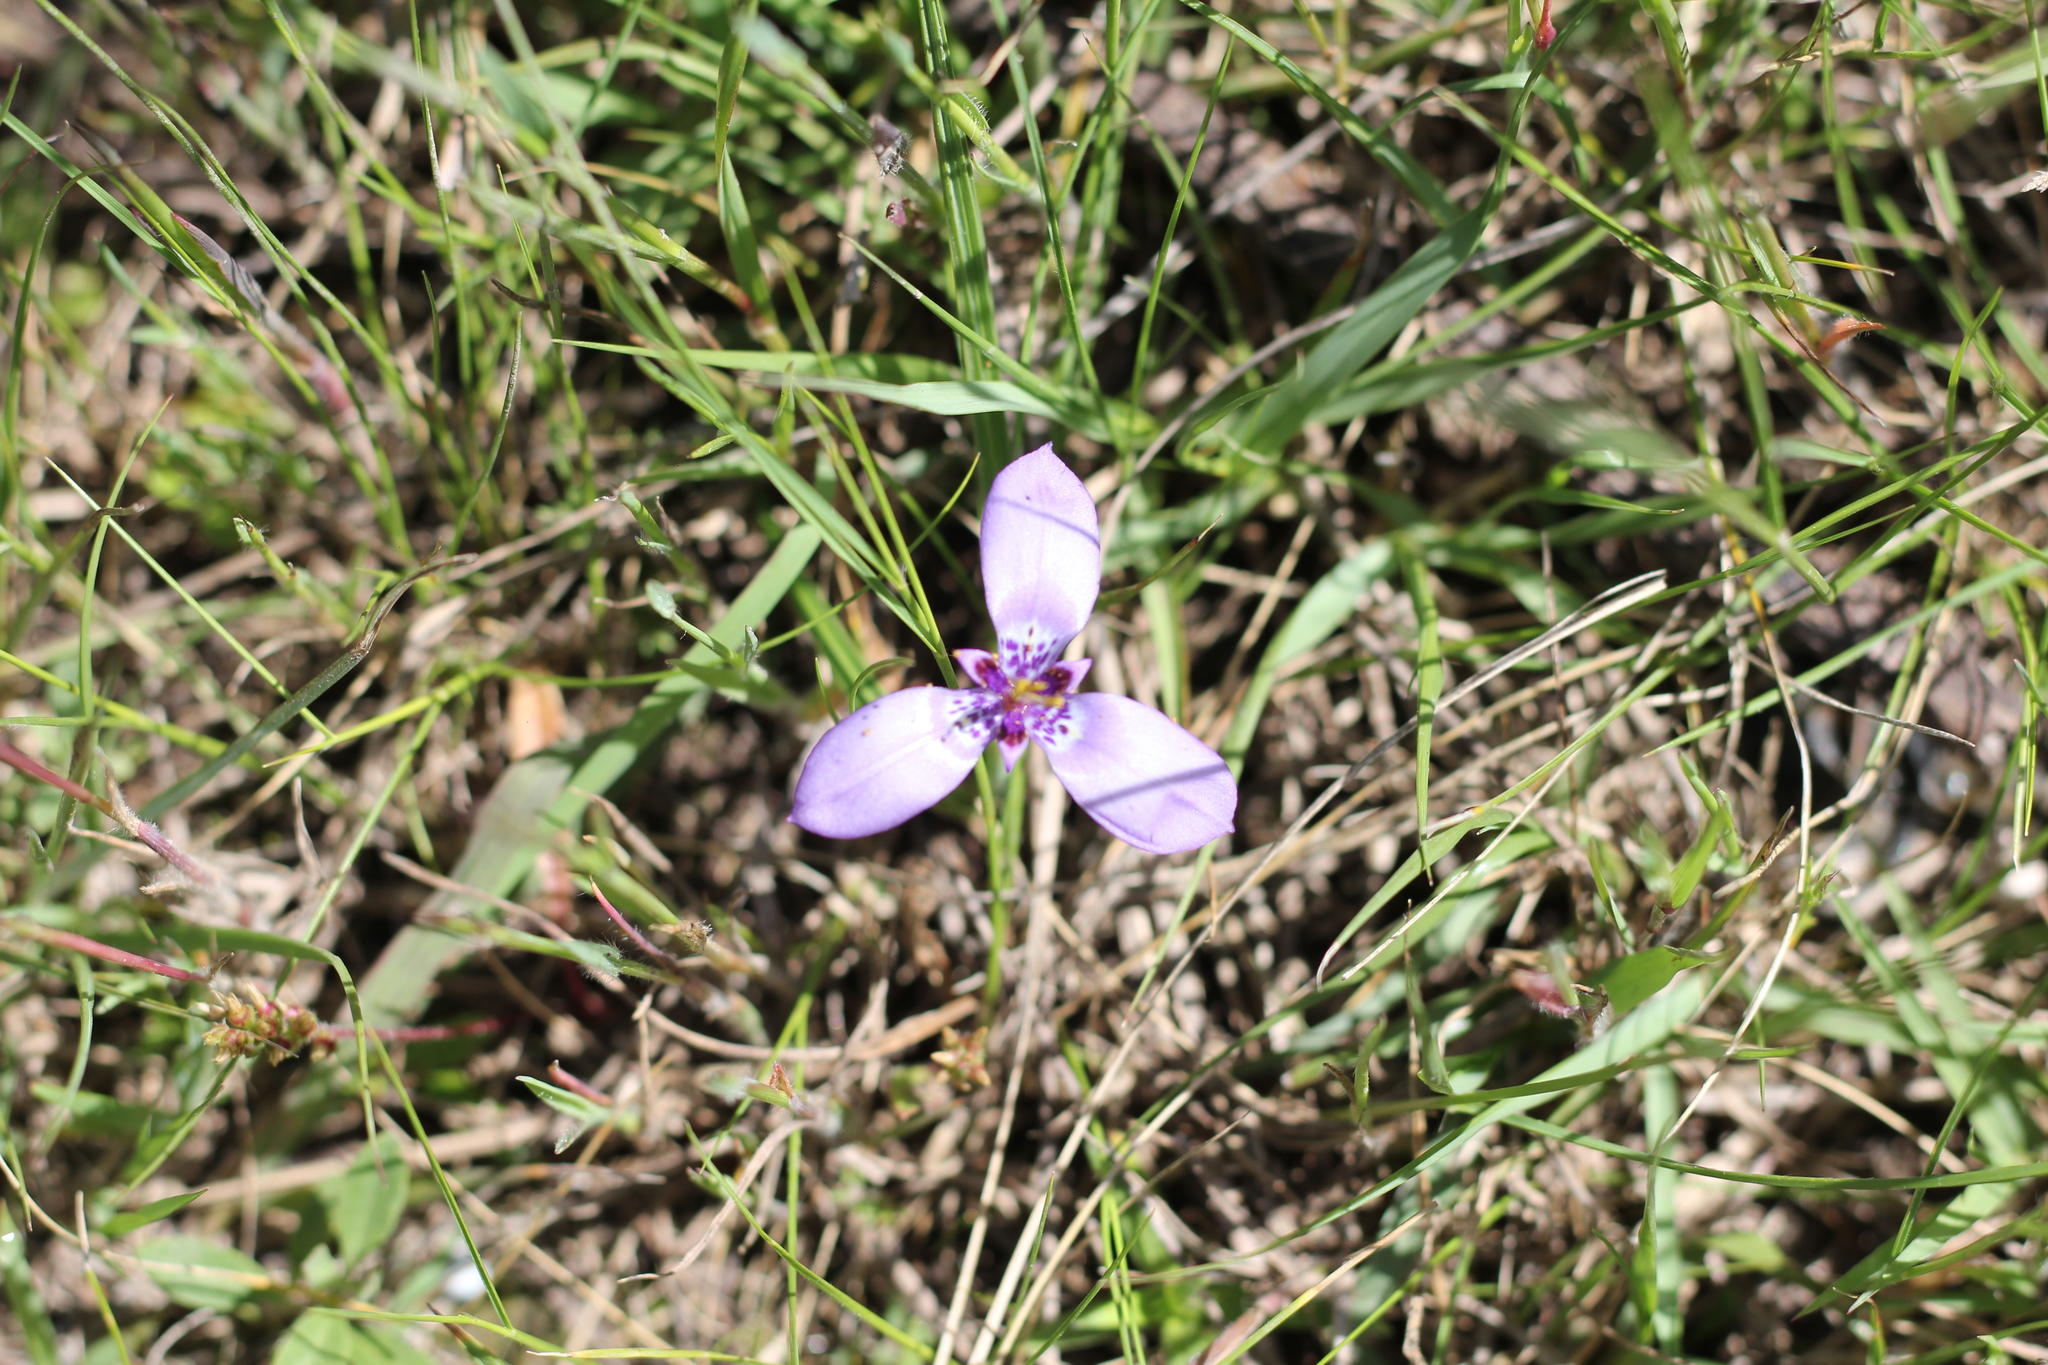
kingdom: Plantae
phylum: Tracheophyta
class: Liliopsida
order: Asparagales
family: Iridaceae
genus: Herbertia
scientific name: Herbertia lahue
